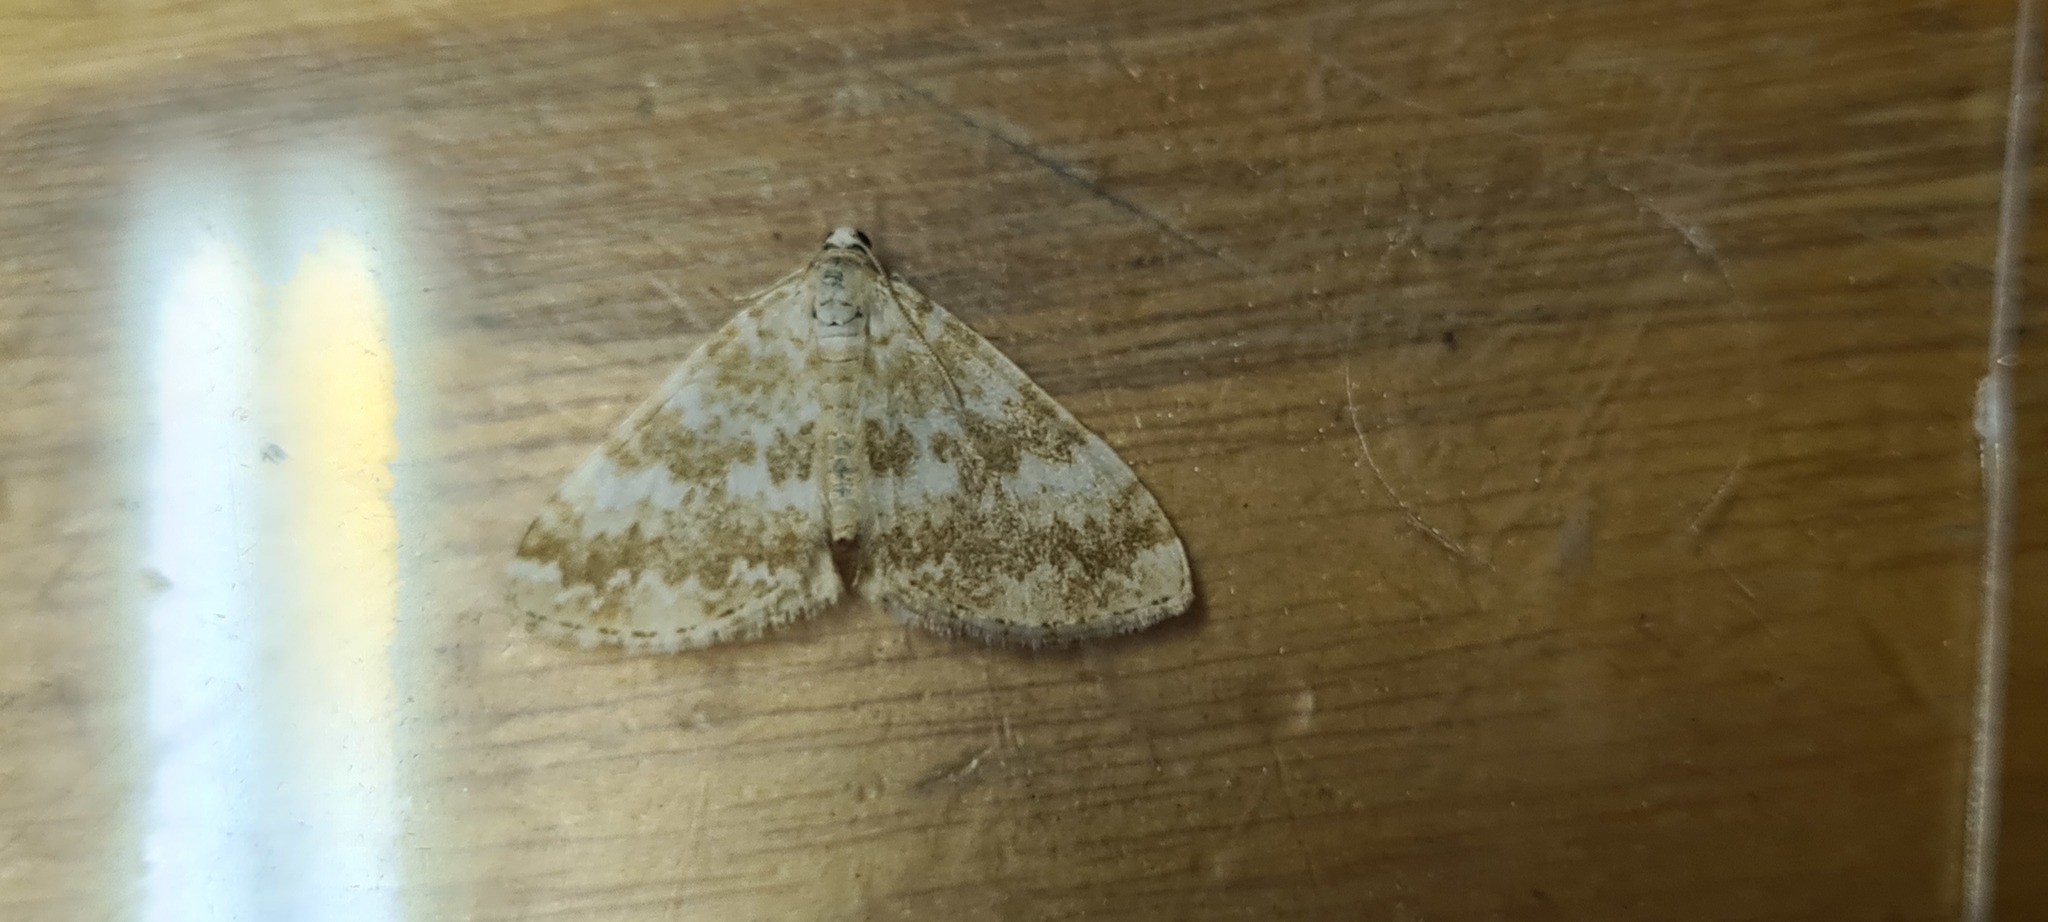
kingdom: Animalia
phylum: Arthropoda
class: Insecta
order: Lepidoptera
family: Geometridae
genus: Perizoma
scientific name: Perizoma flavofasciata
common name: Sandy carpet
